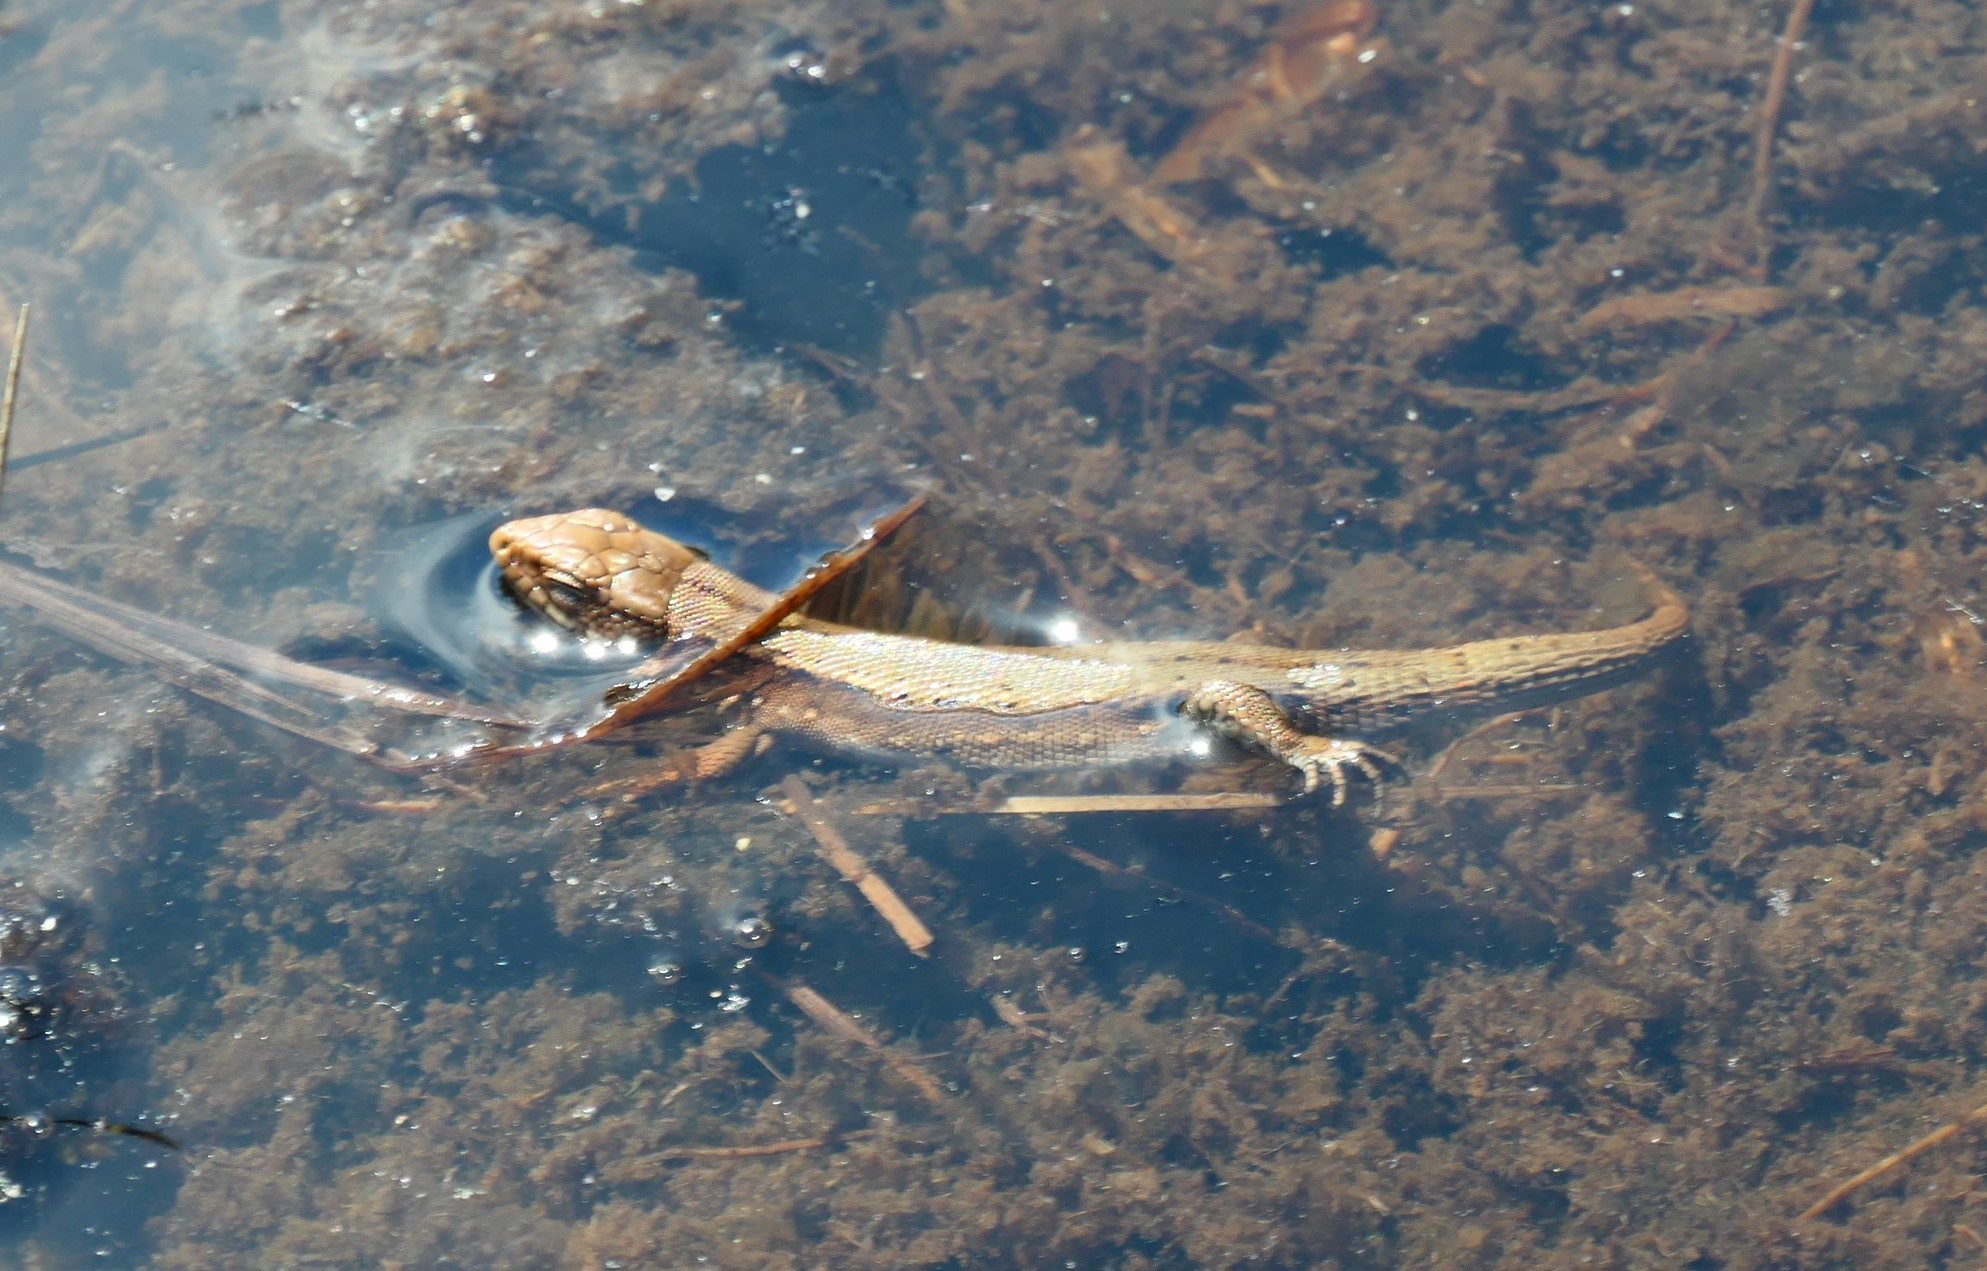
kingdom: Animalia
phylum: Chordata
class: Squamata
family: Lacertidae
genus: Zootoca
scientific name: Zootoca
